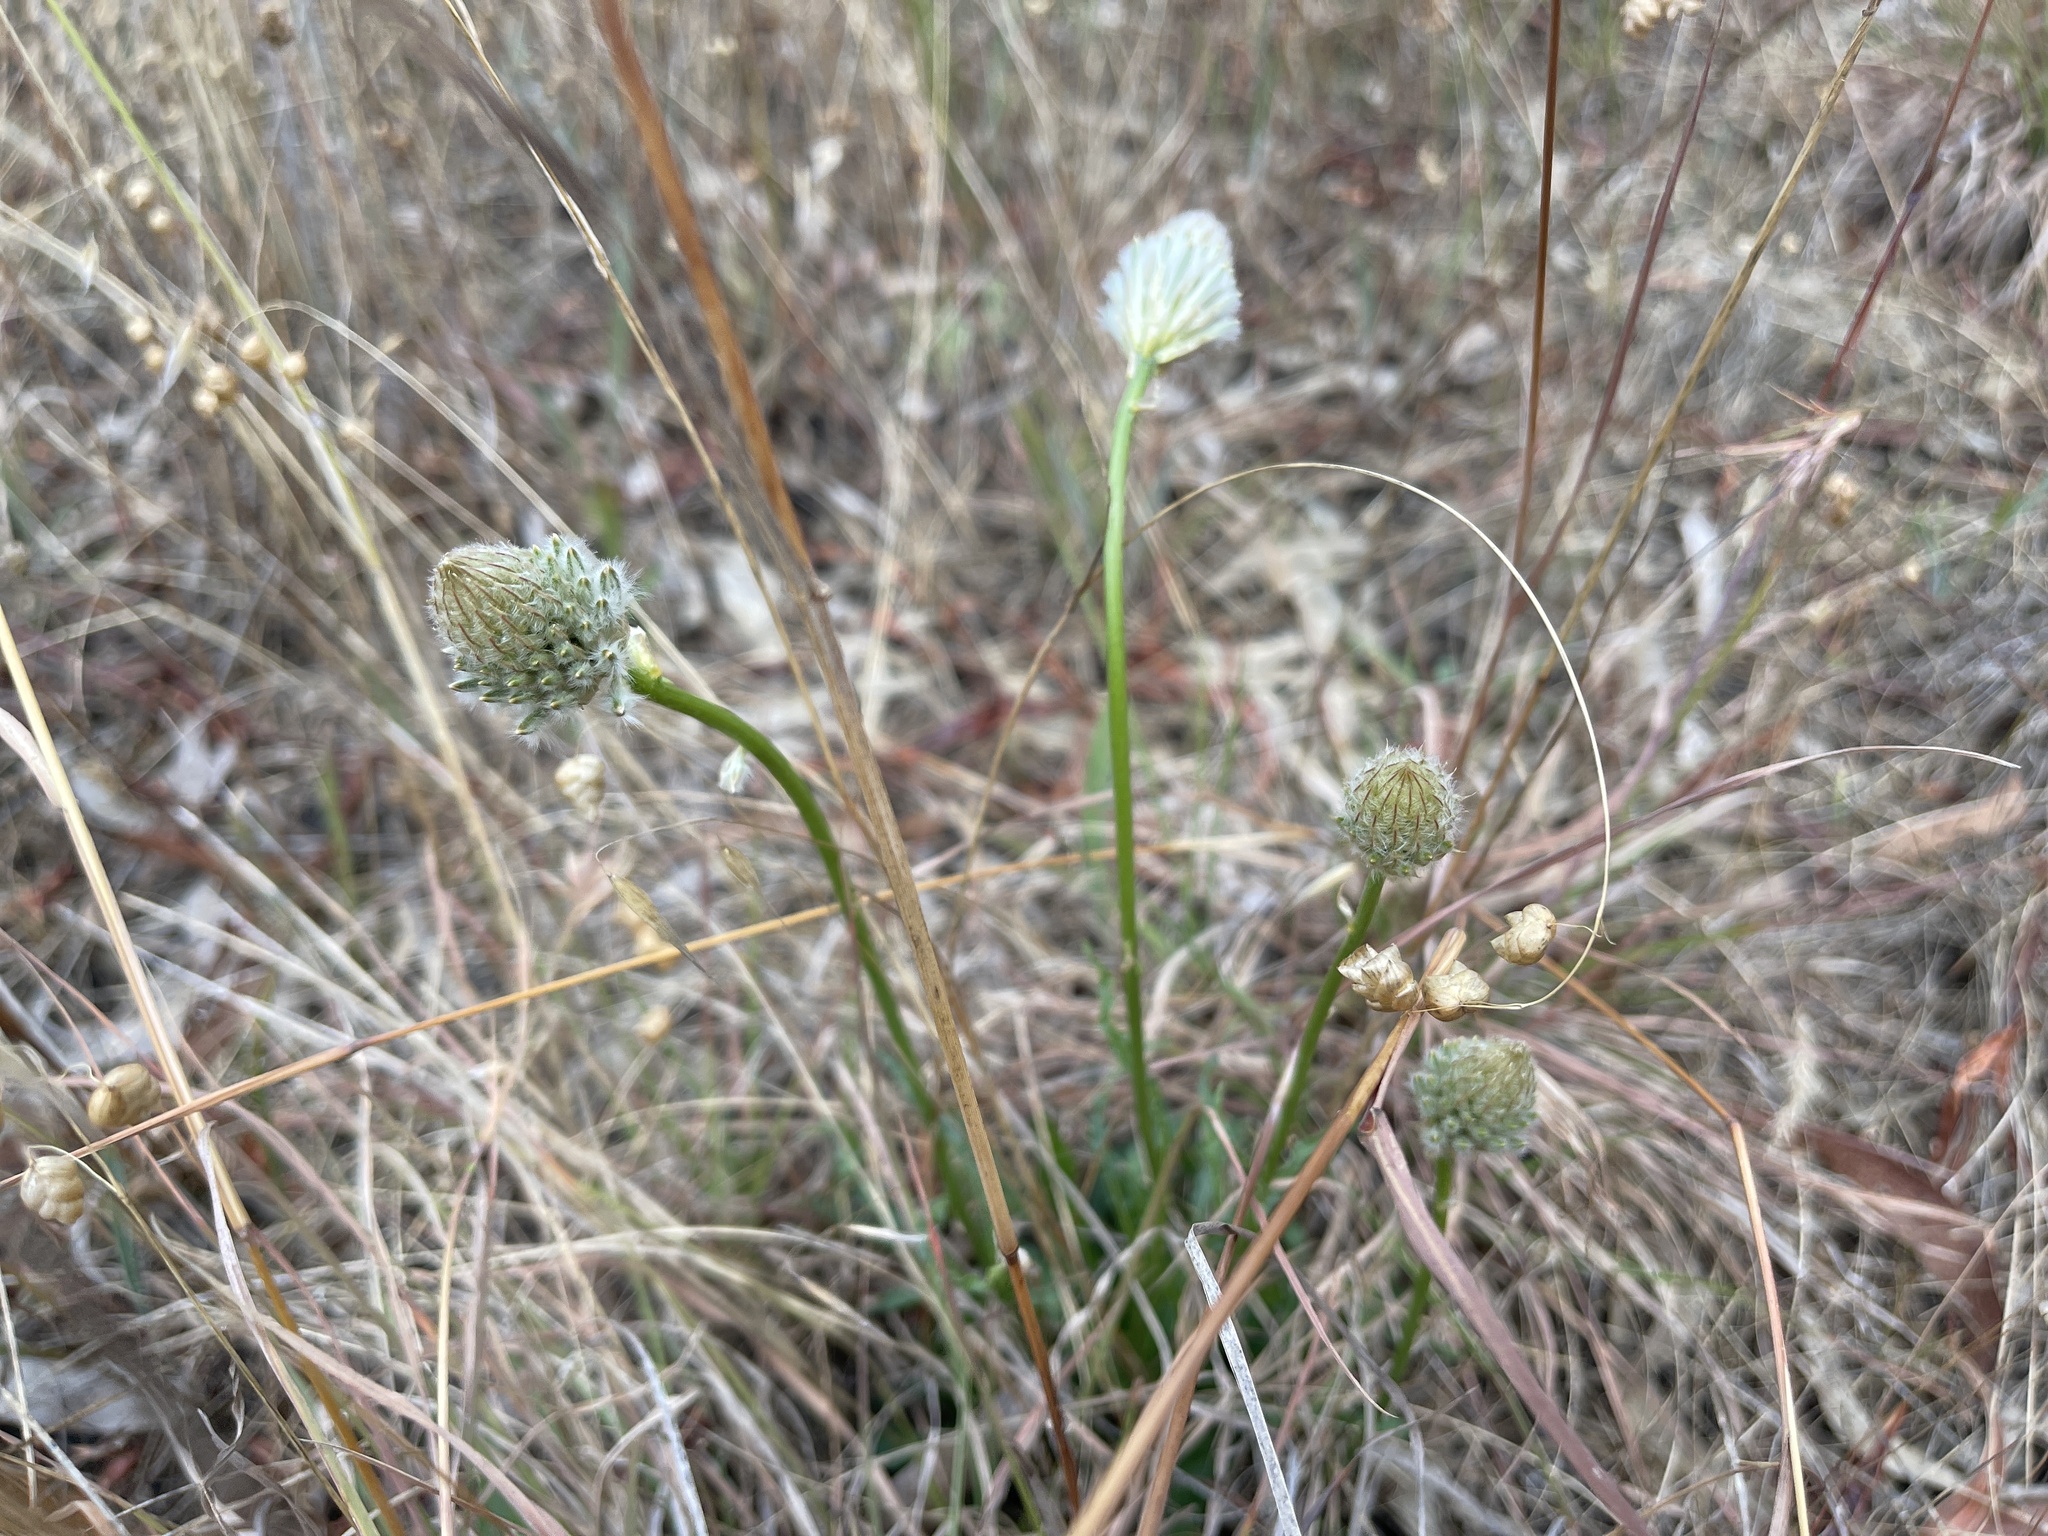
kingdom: Plantae
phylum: Tracheophyta
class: Magnoliopsida
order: Caryophyllales
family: Amaranthaceae
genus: Ptilotus
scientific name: Ptilotus macrocephalus
